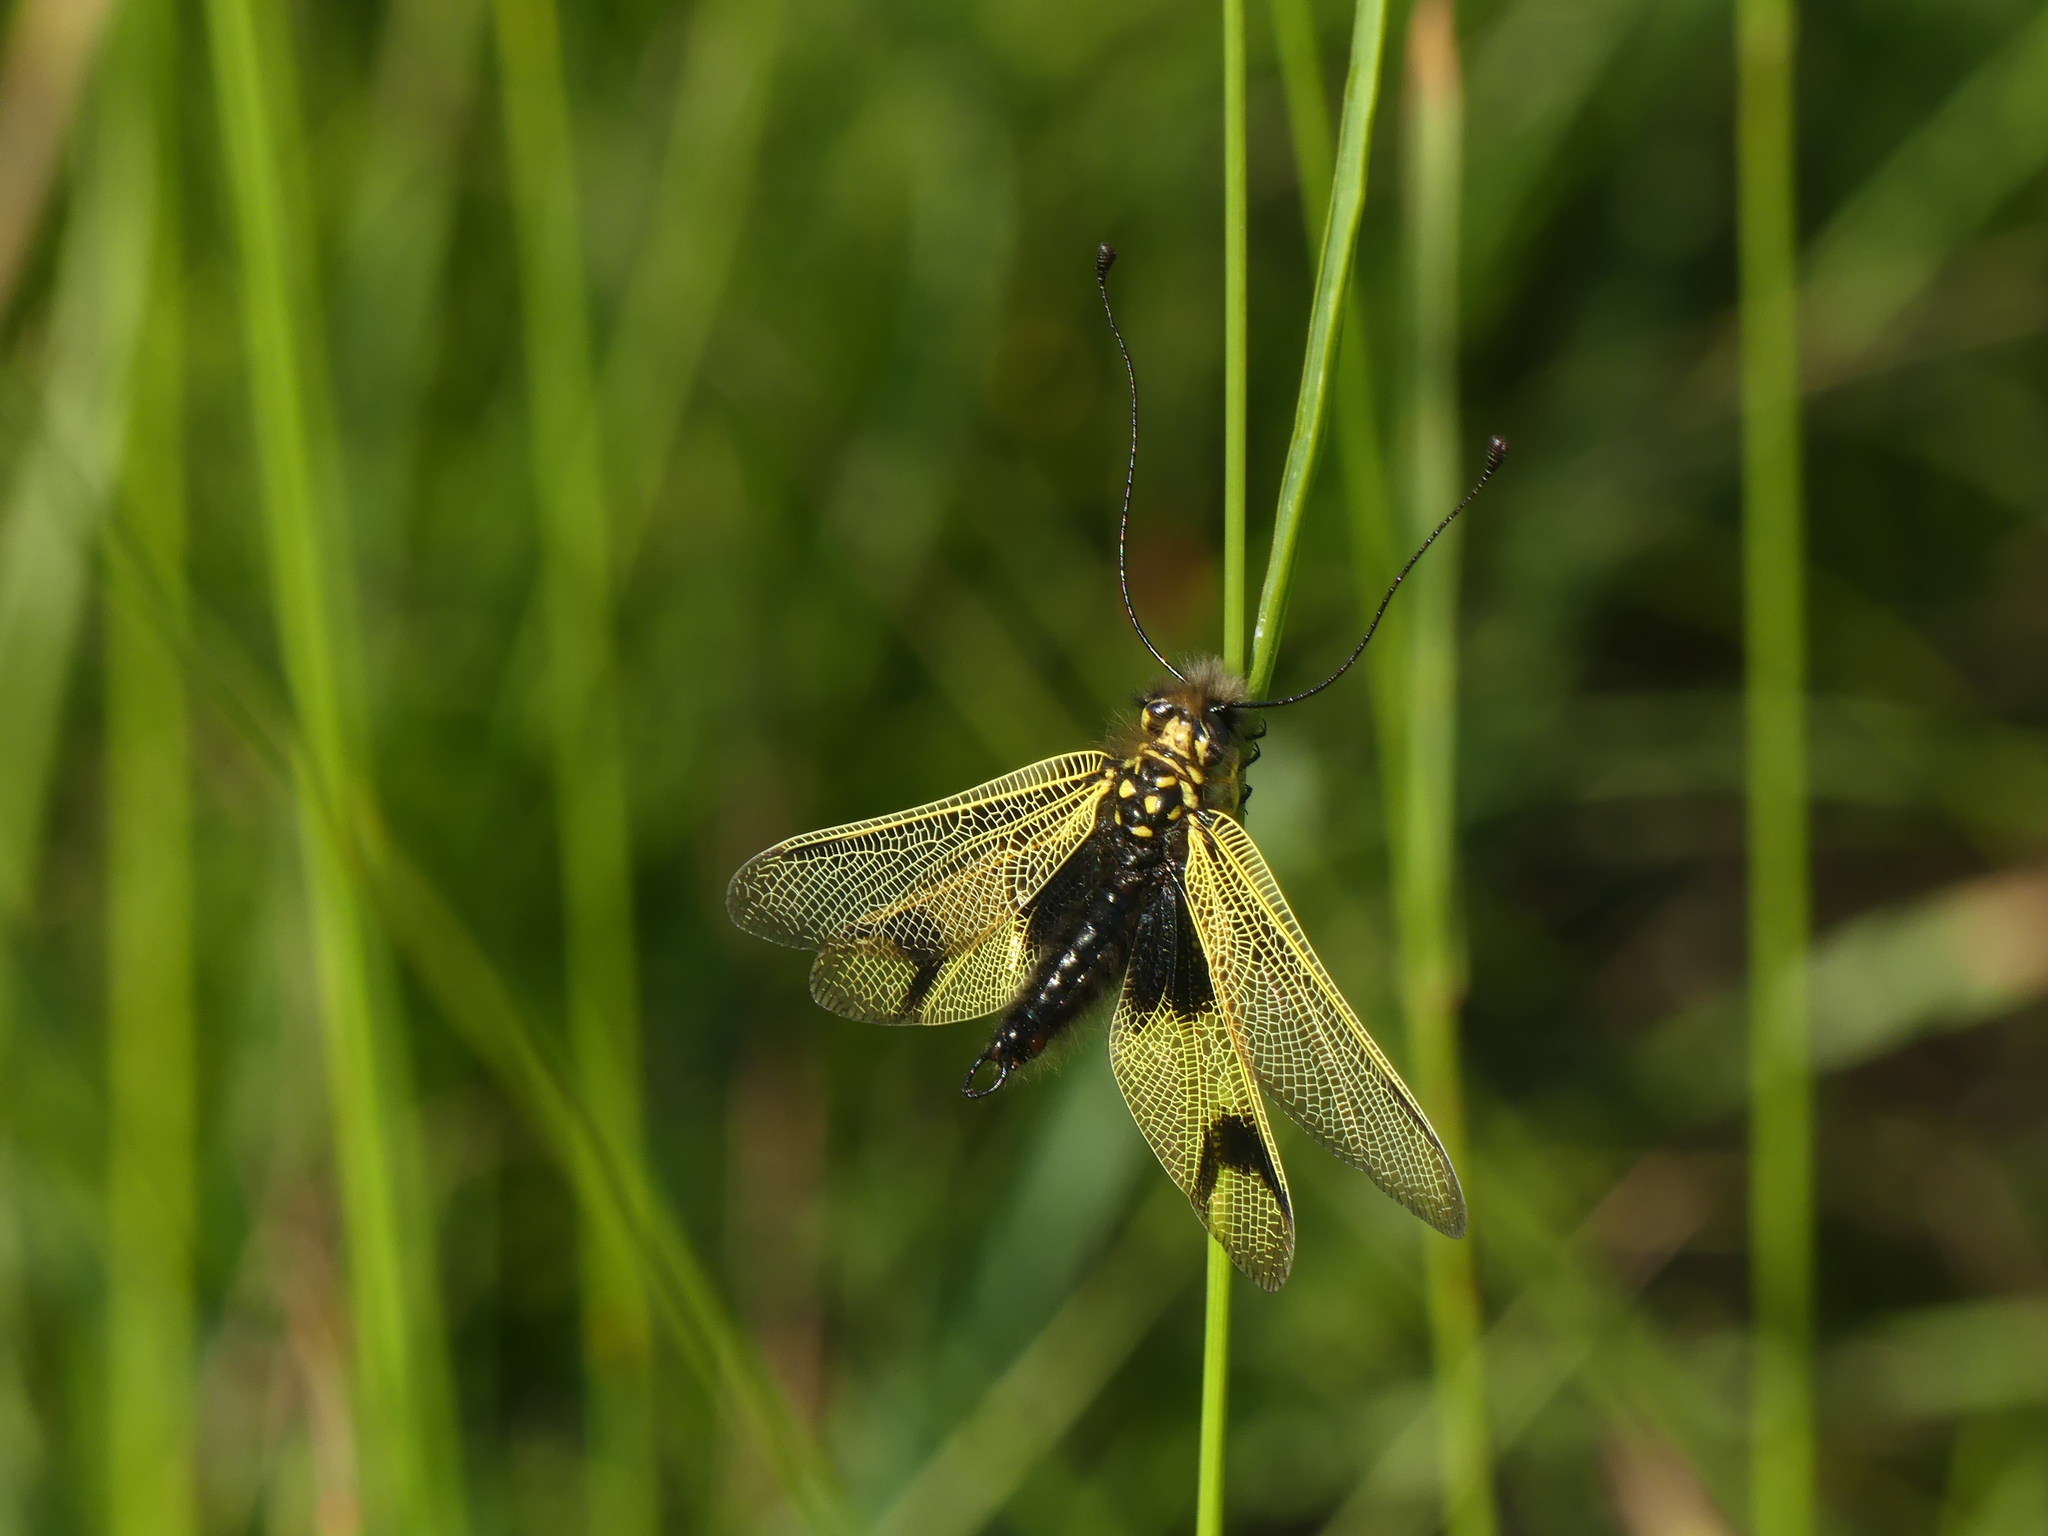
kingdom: Animalia
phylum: Arthropoda
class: Insecta
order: Neuroptera
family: Ascalaphidae
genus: Libelloides
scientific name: Libelloides longicornis
